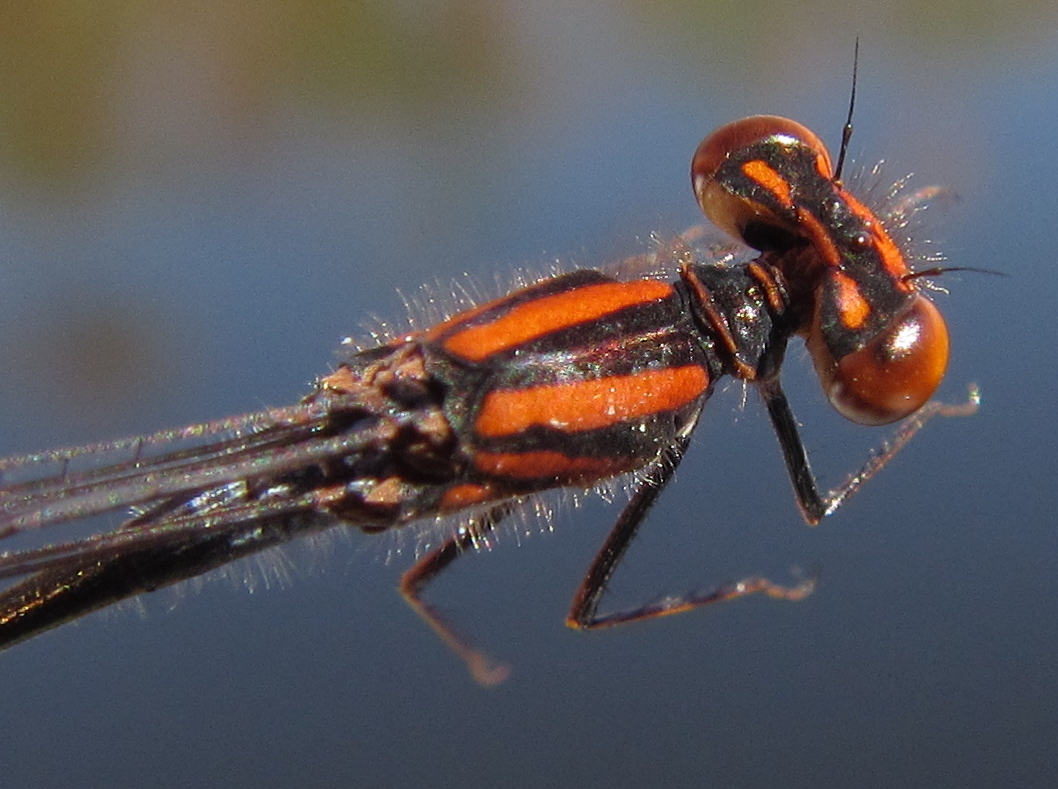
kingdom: Animalia
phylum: Arthropoda
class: Insecta
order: Odonata
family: Coenagrionidae
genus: Pseudagrion
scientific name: Pseudagrion rufostigma
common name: Dark sprite
